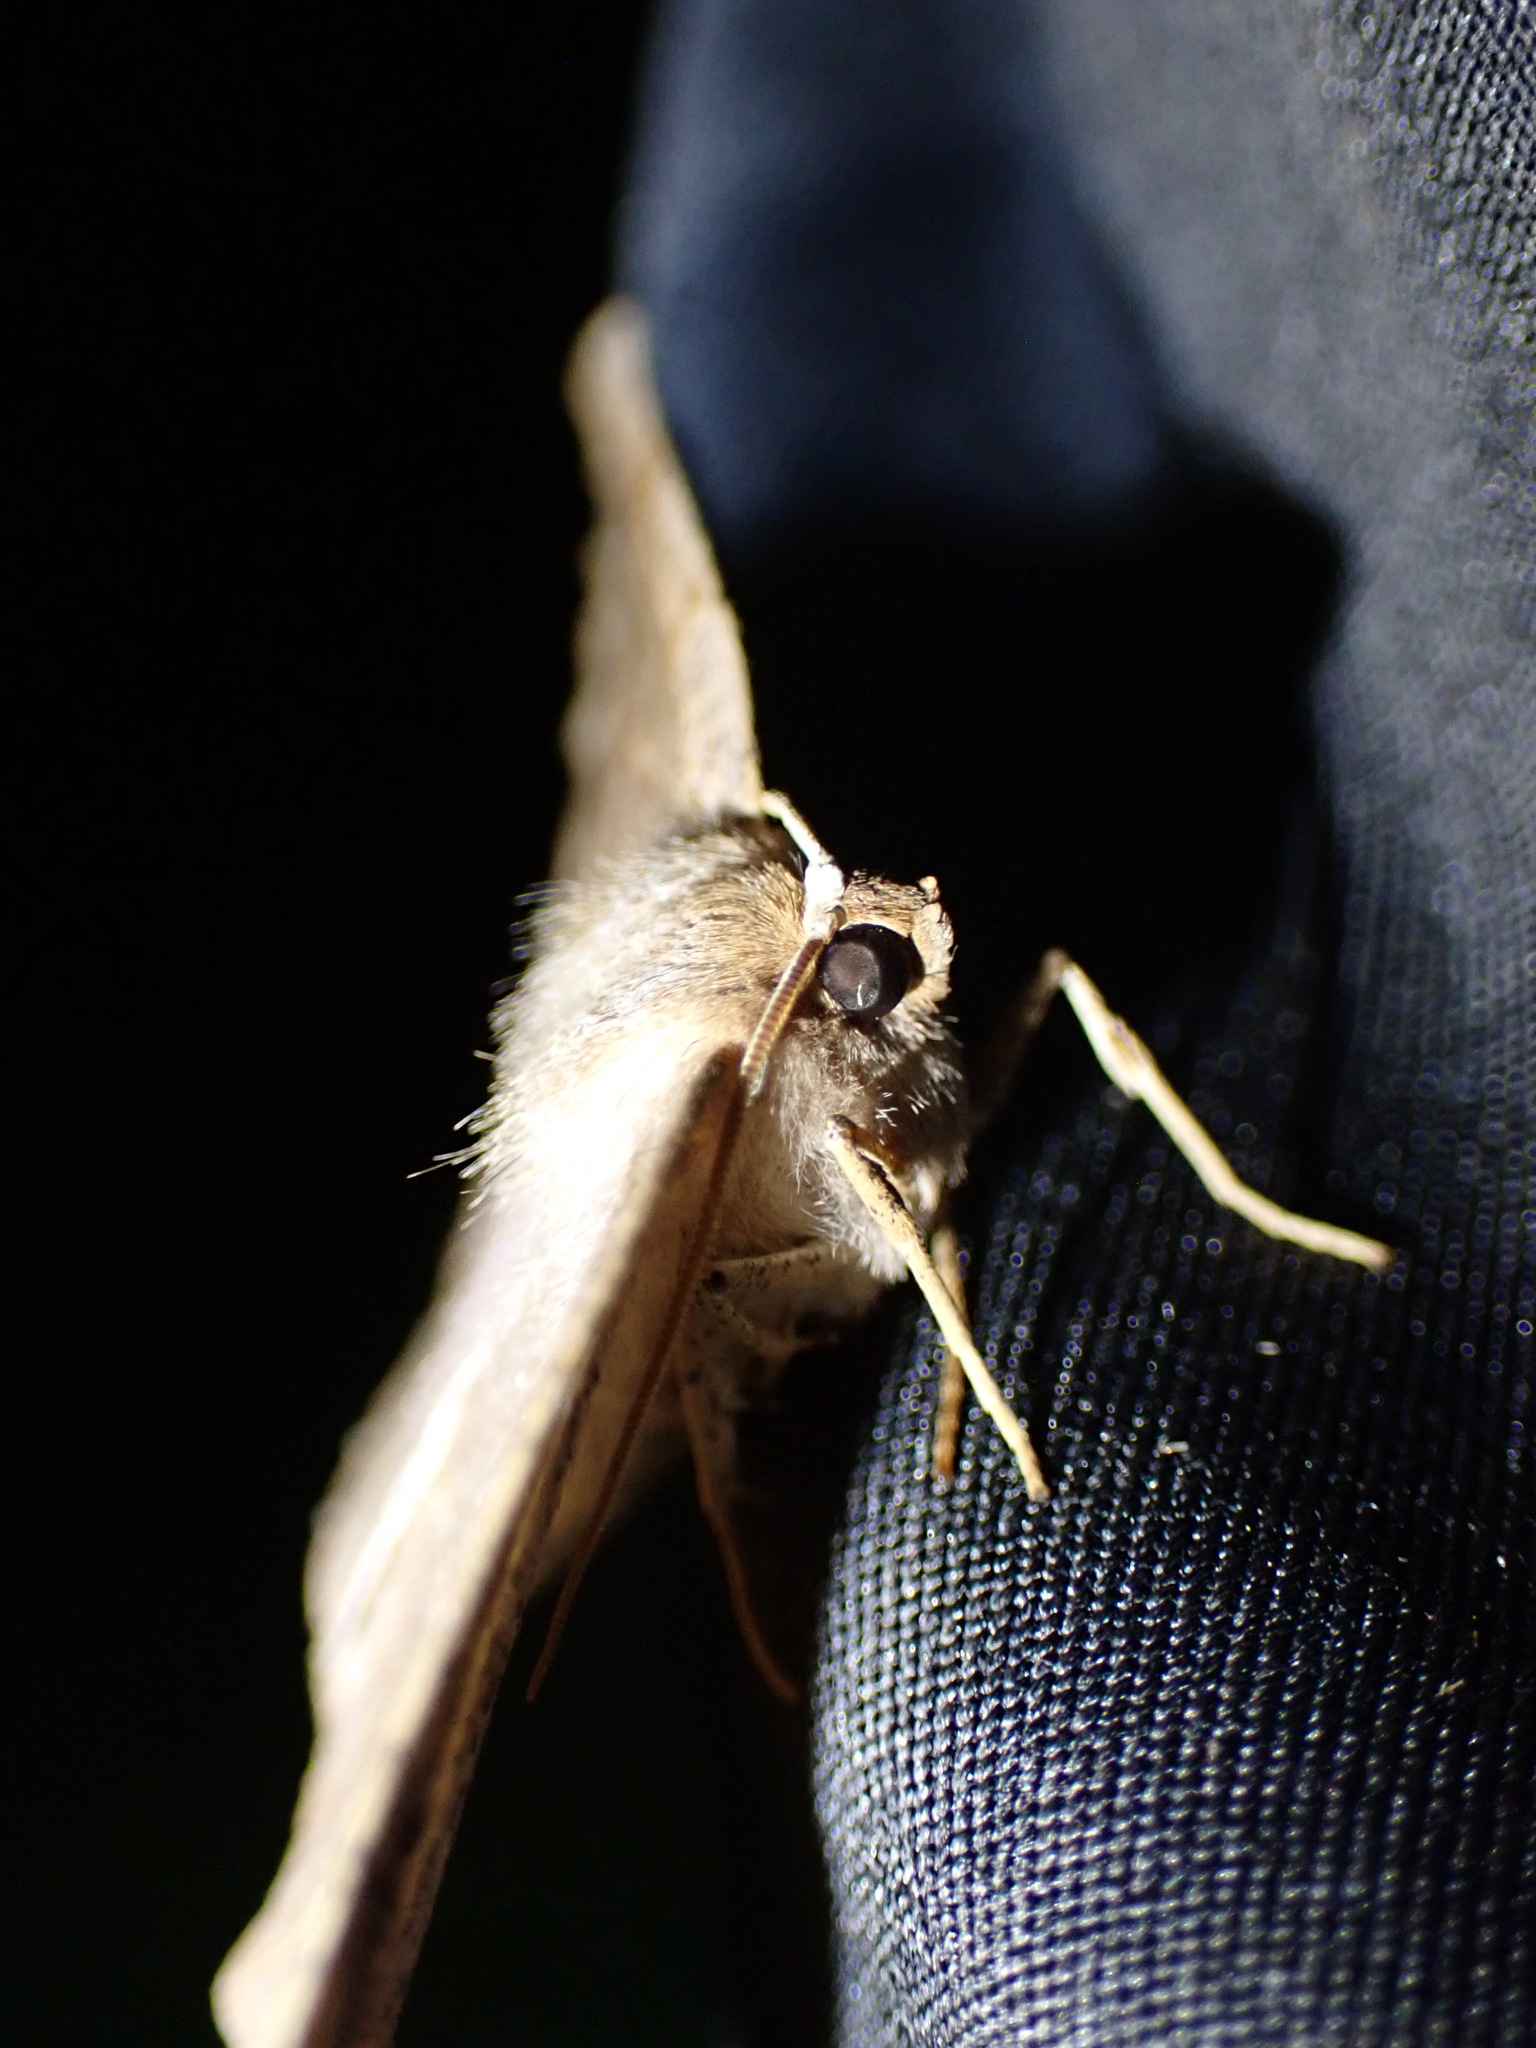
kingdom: Animalia
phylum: Arthropoda
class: Insecta
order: Lepidoptera
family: Geometridae
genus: Eutrapela
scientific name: Eutrapela clemataria
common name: Curved-toothed geometer
